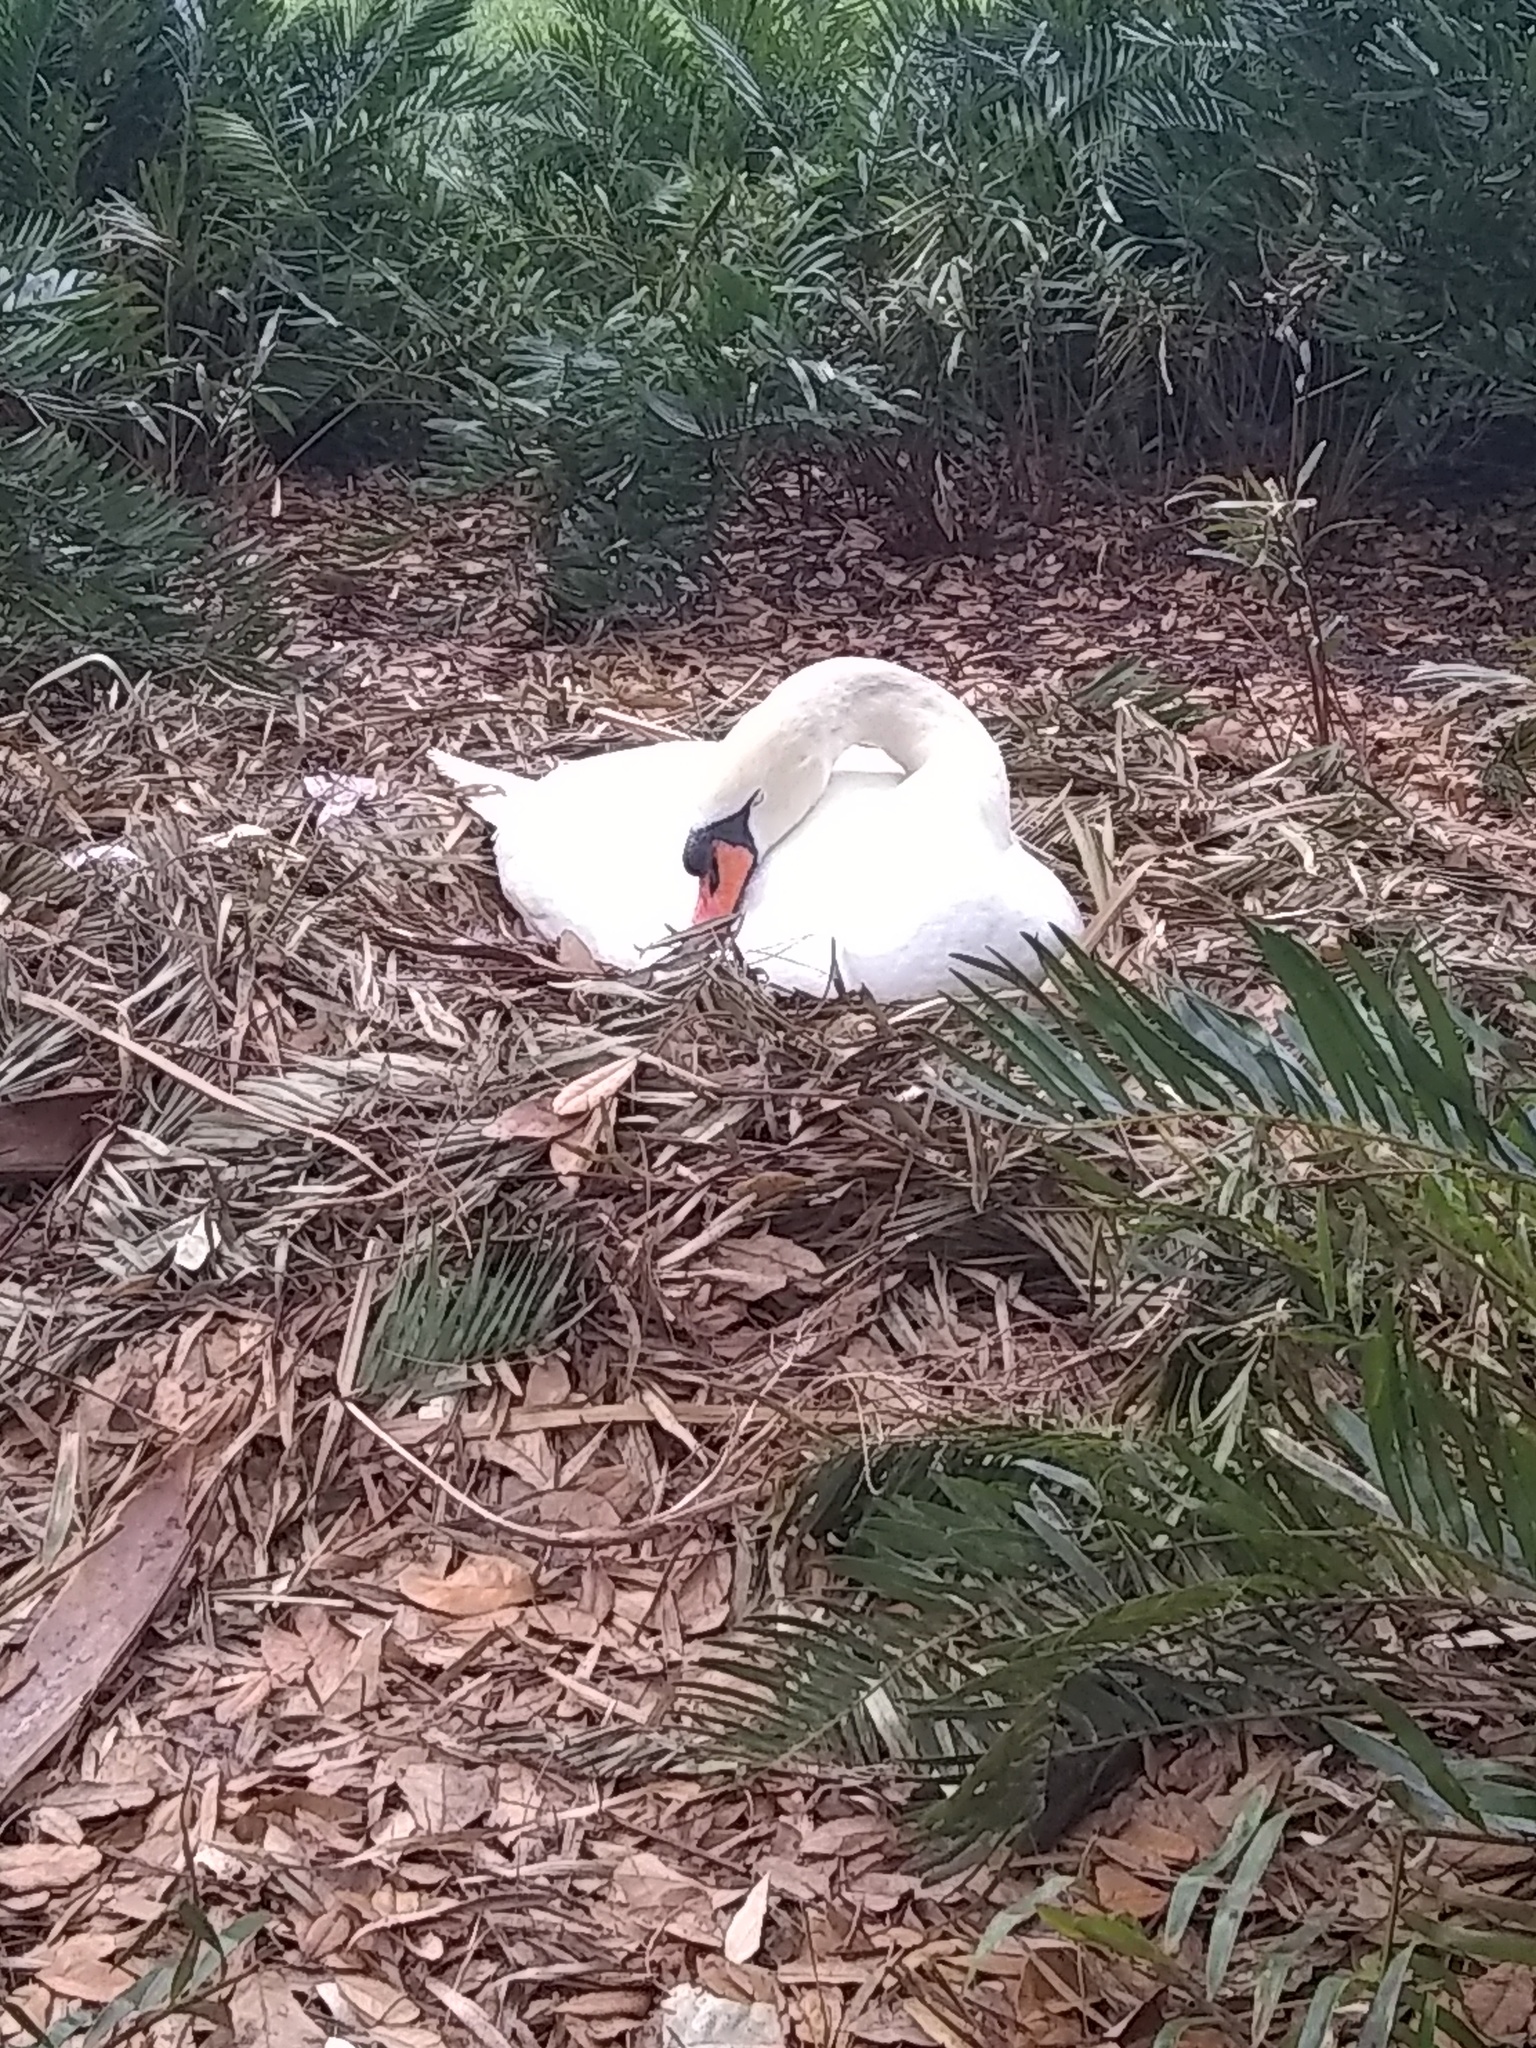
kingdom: Animalia
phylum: Chordata
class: Aves
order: Anseriformes
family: Anatidae
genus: Cygnus
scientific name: Cygnus olor
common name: Mute swan
